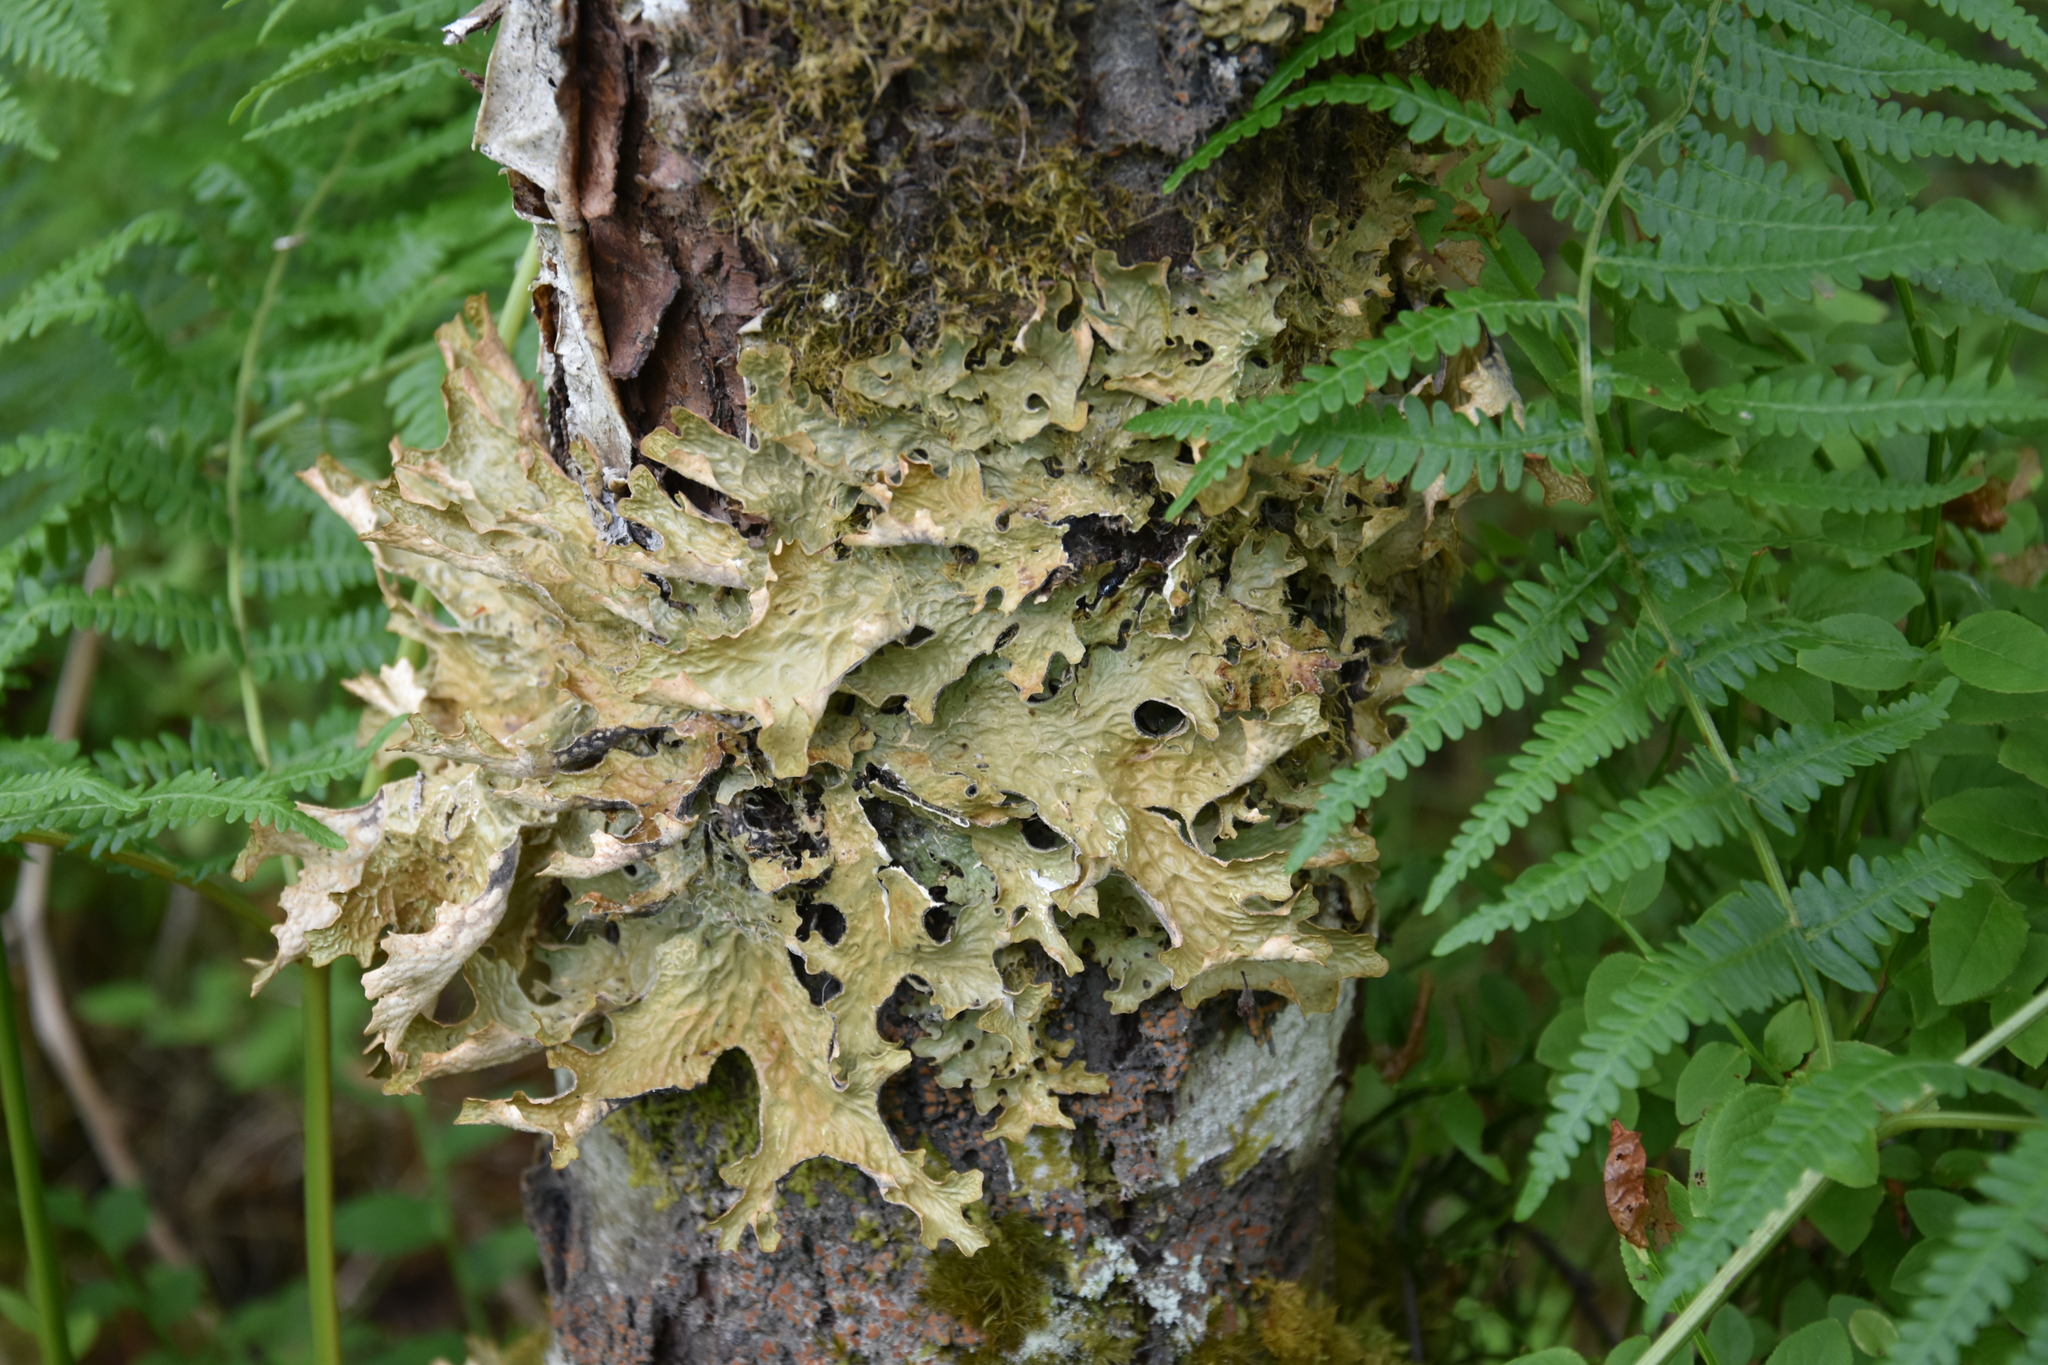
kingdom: Fungi
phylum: Ascomycota
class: Lecanoromycetes
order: Peltigerales
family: Lobariaceae
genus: Lobaria
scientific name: Lobaria pulmonaria
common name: Lungwort
